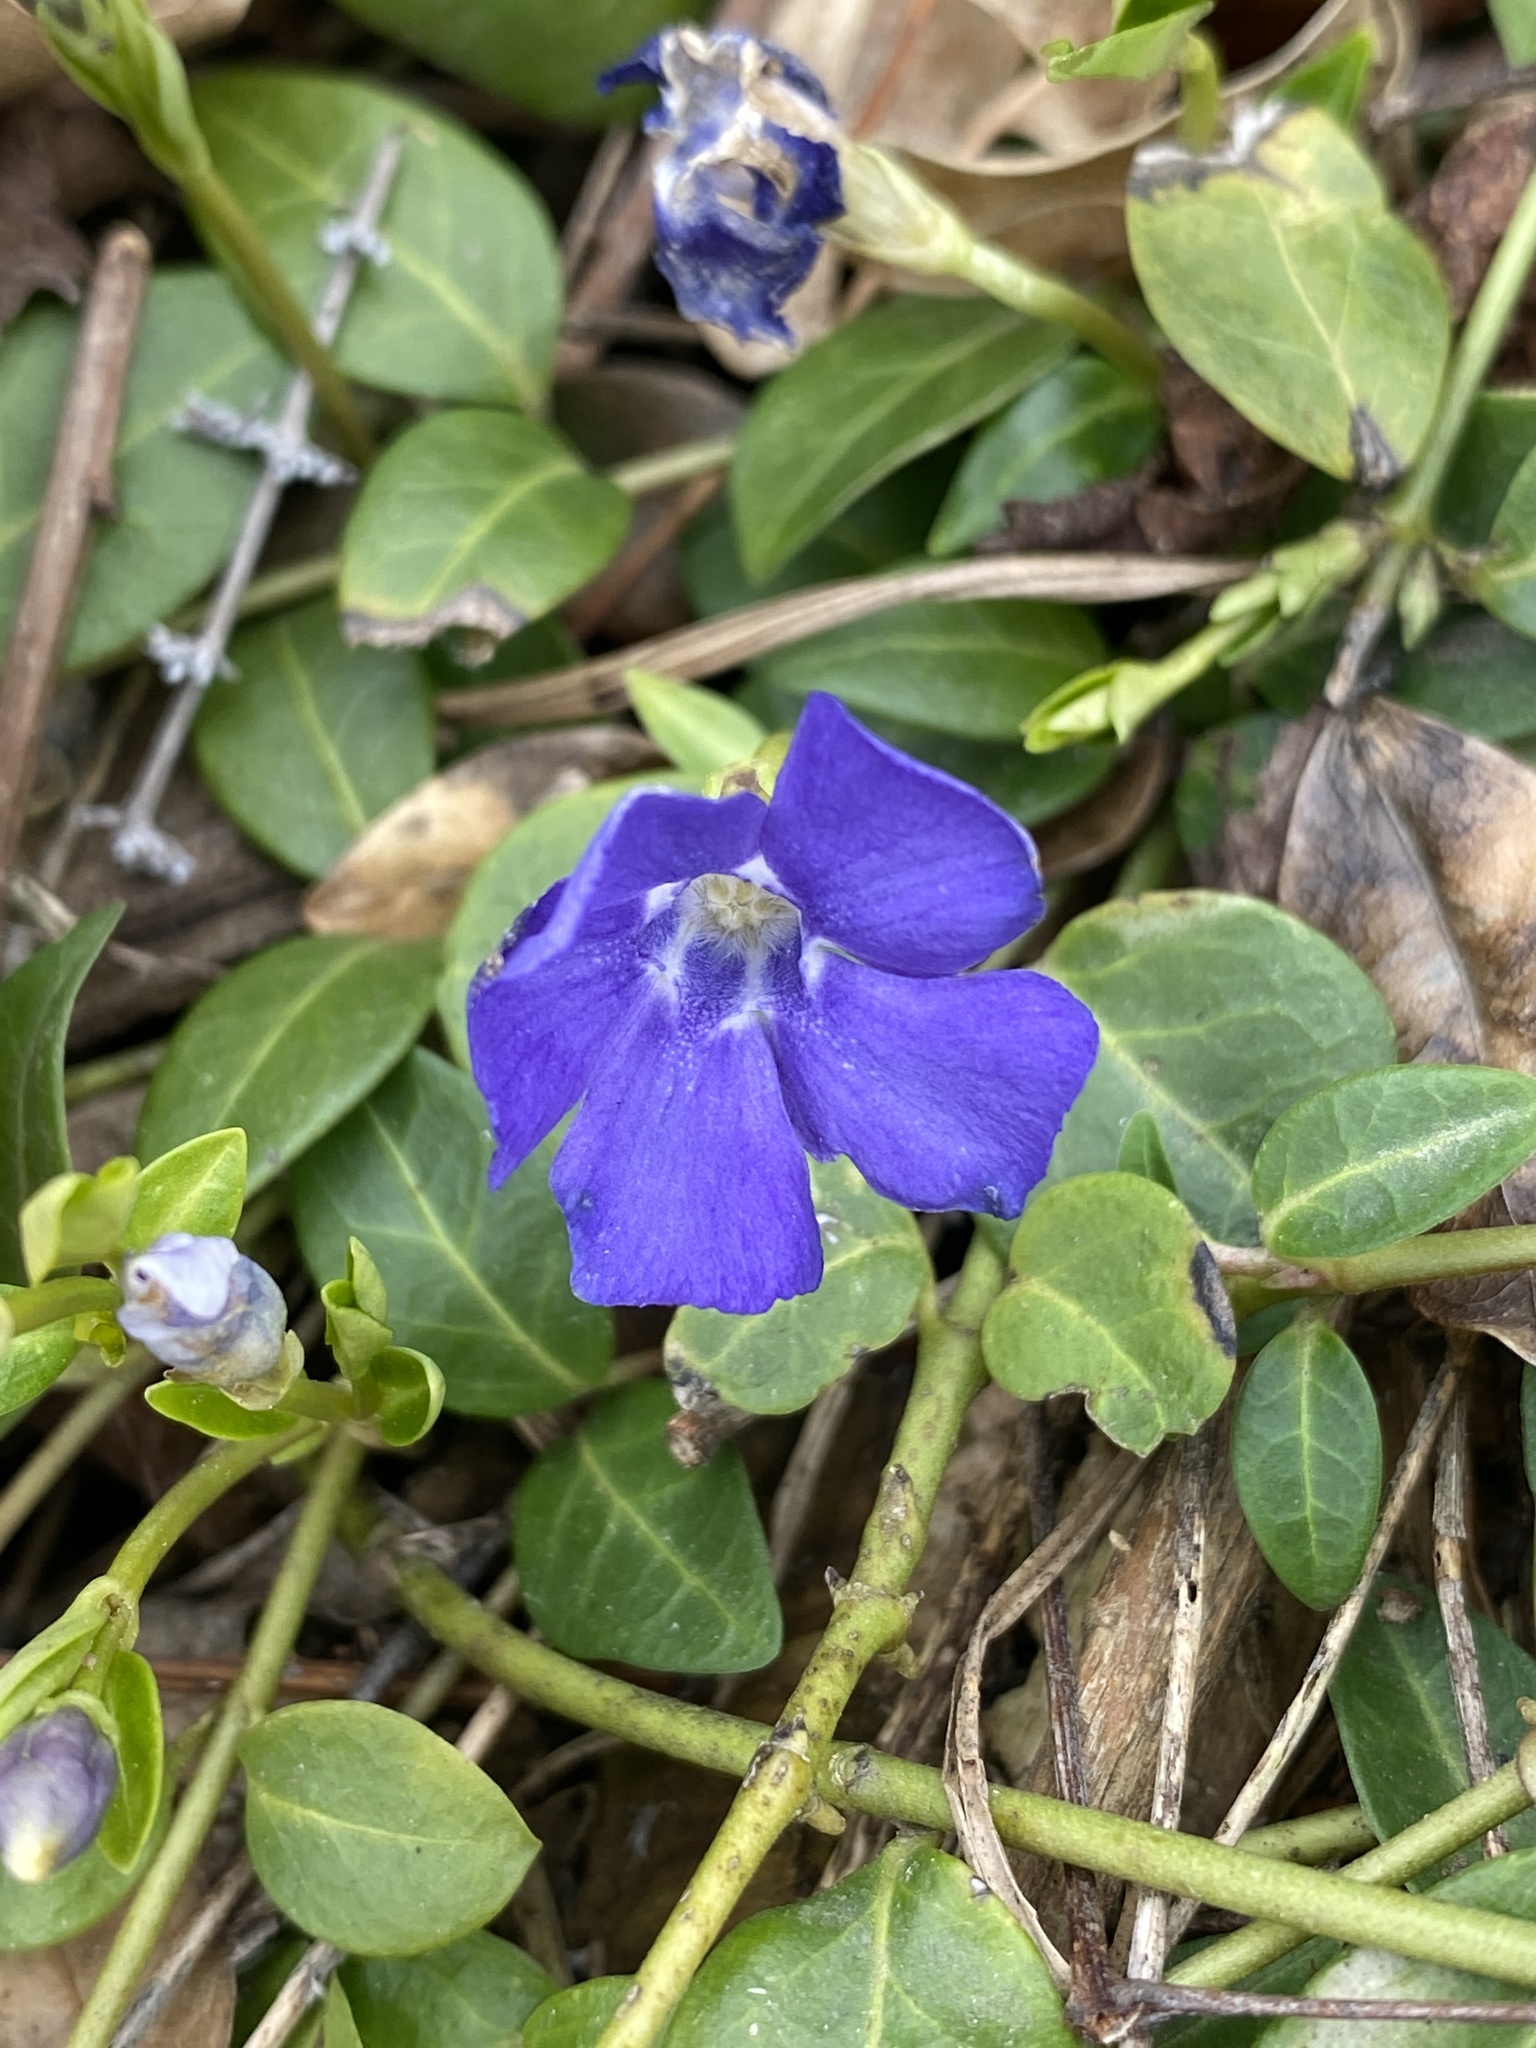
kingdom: Plantae
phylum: Tracheophyta
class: Magnoliopsida
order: Gentianales
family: Apocynaceae
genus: Vinca
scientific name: Vinca minor
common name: Lesser periwinkle
